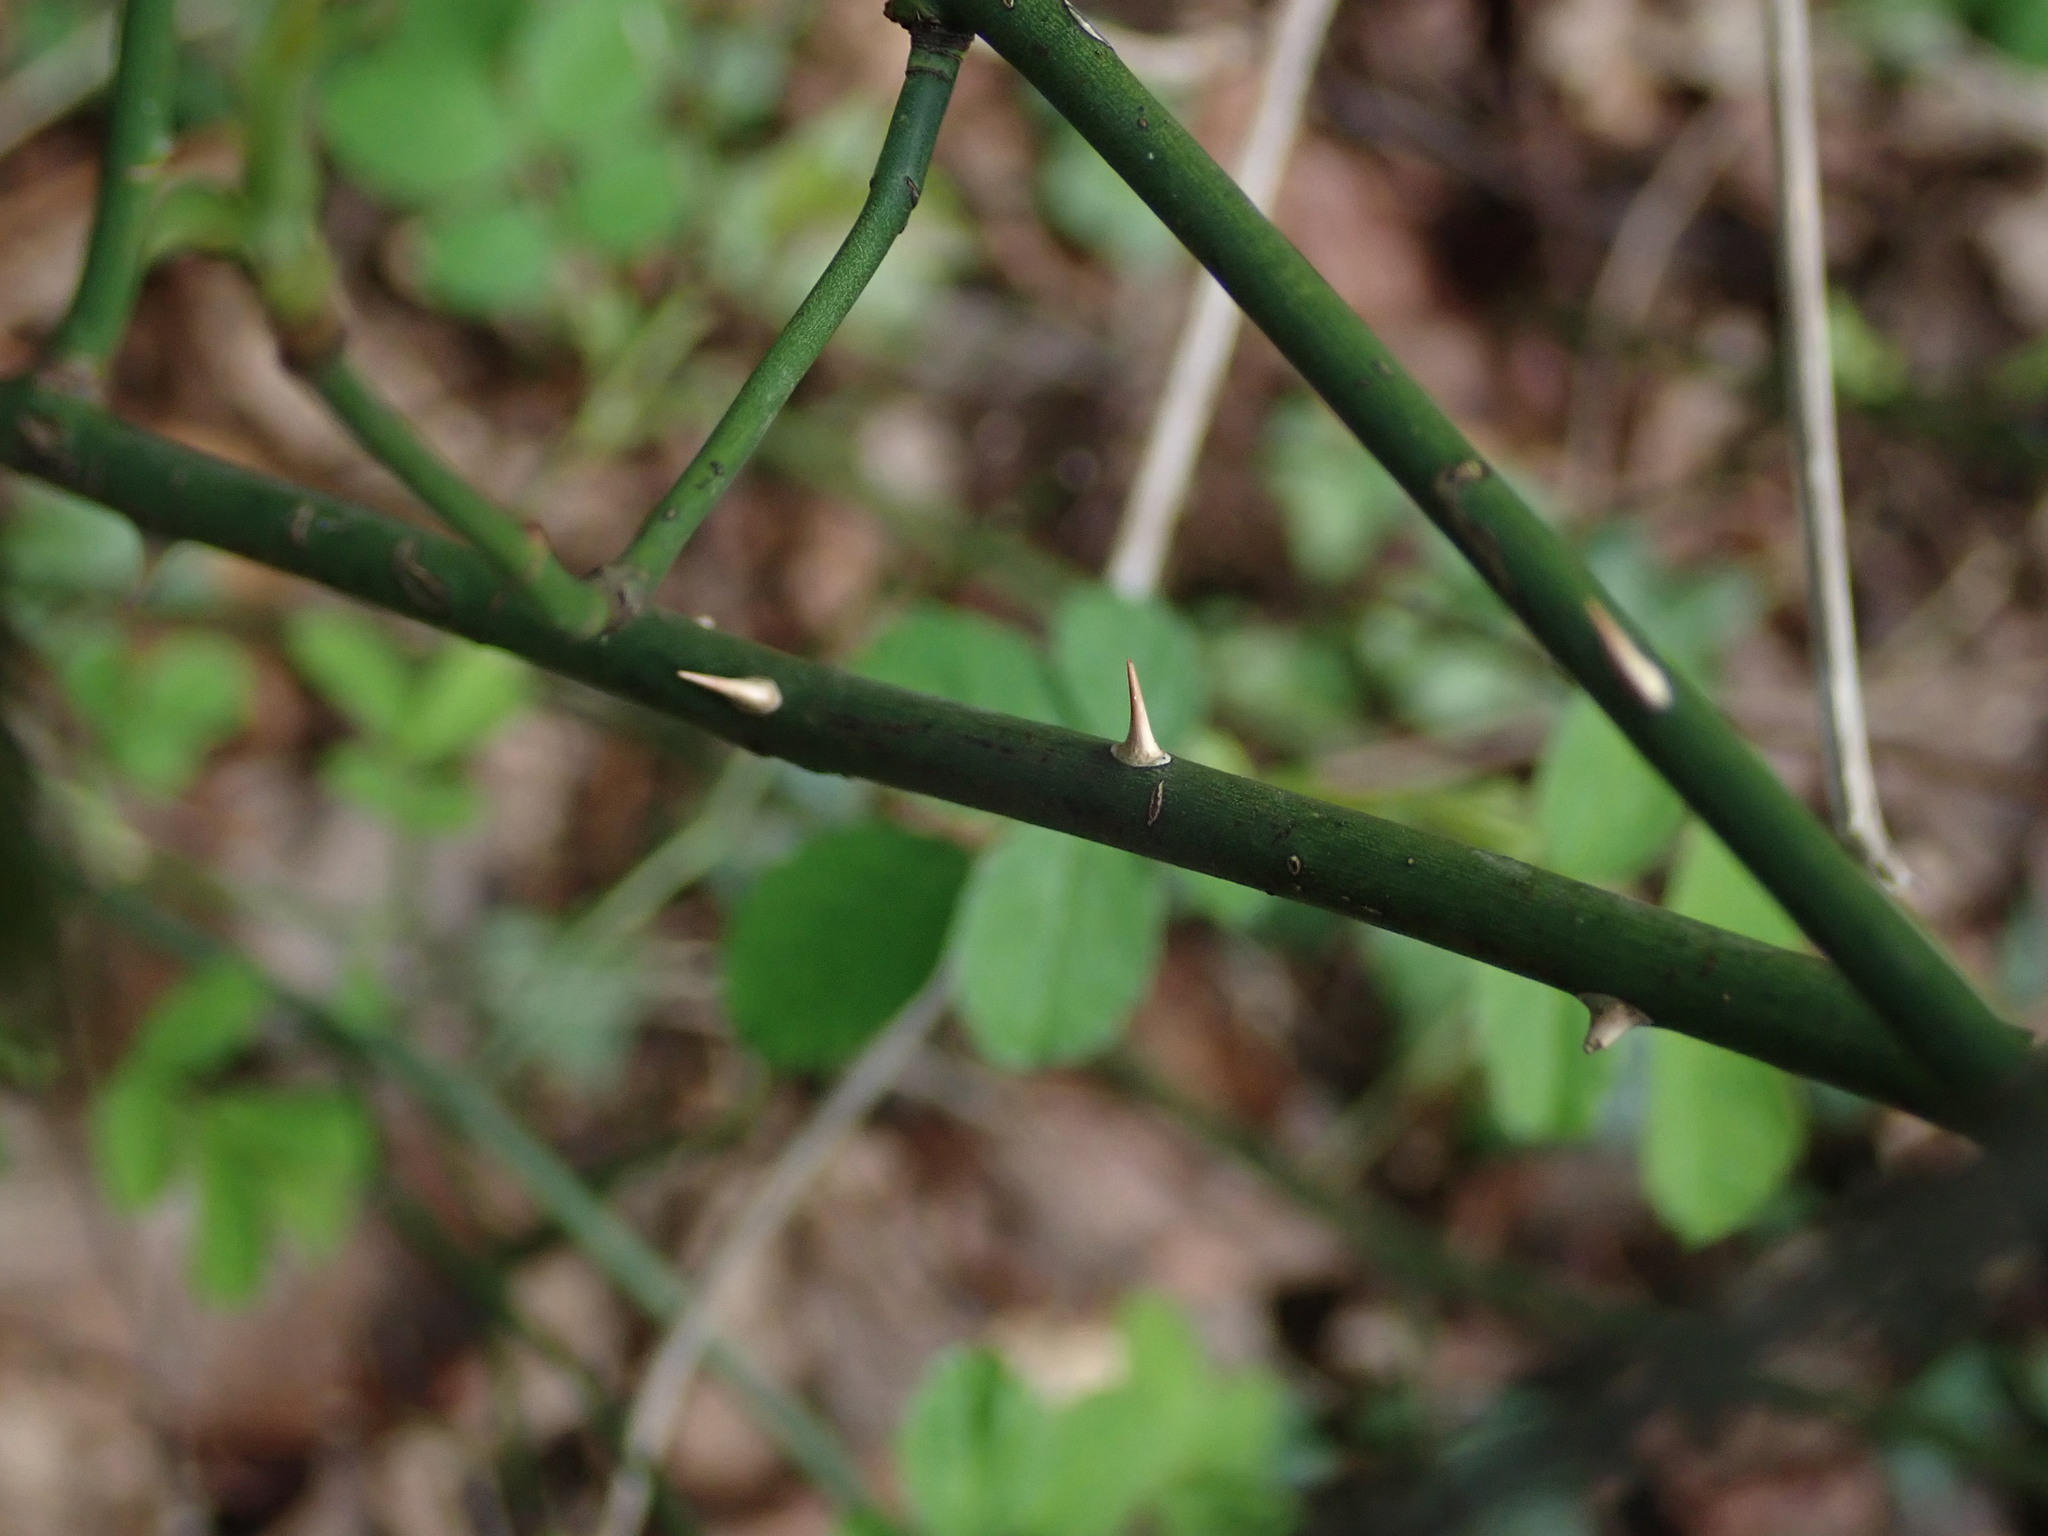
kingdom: Plantae
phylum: Tracheophyta
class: Magnoliopsida
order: Rosales
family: Rosaceae
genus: Rosa
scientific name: Rosa arvensis
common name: Field rose
